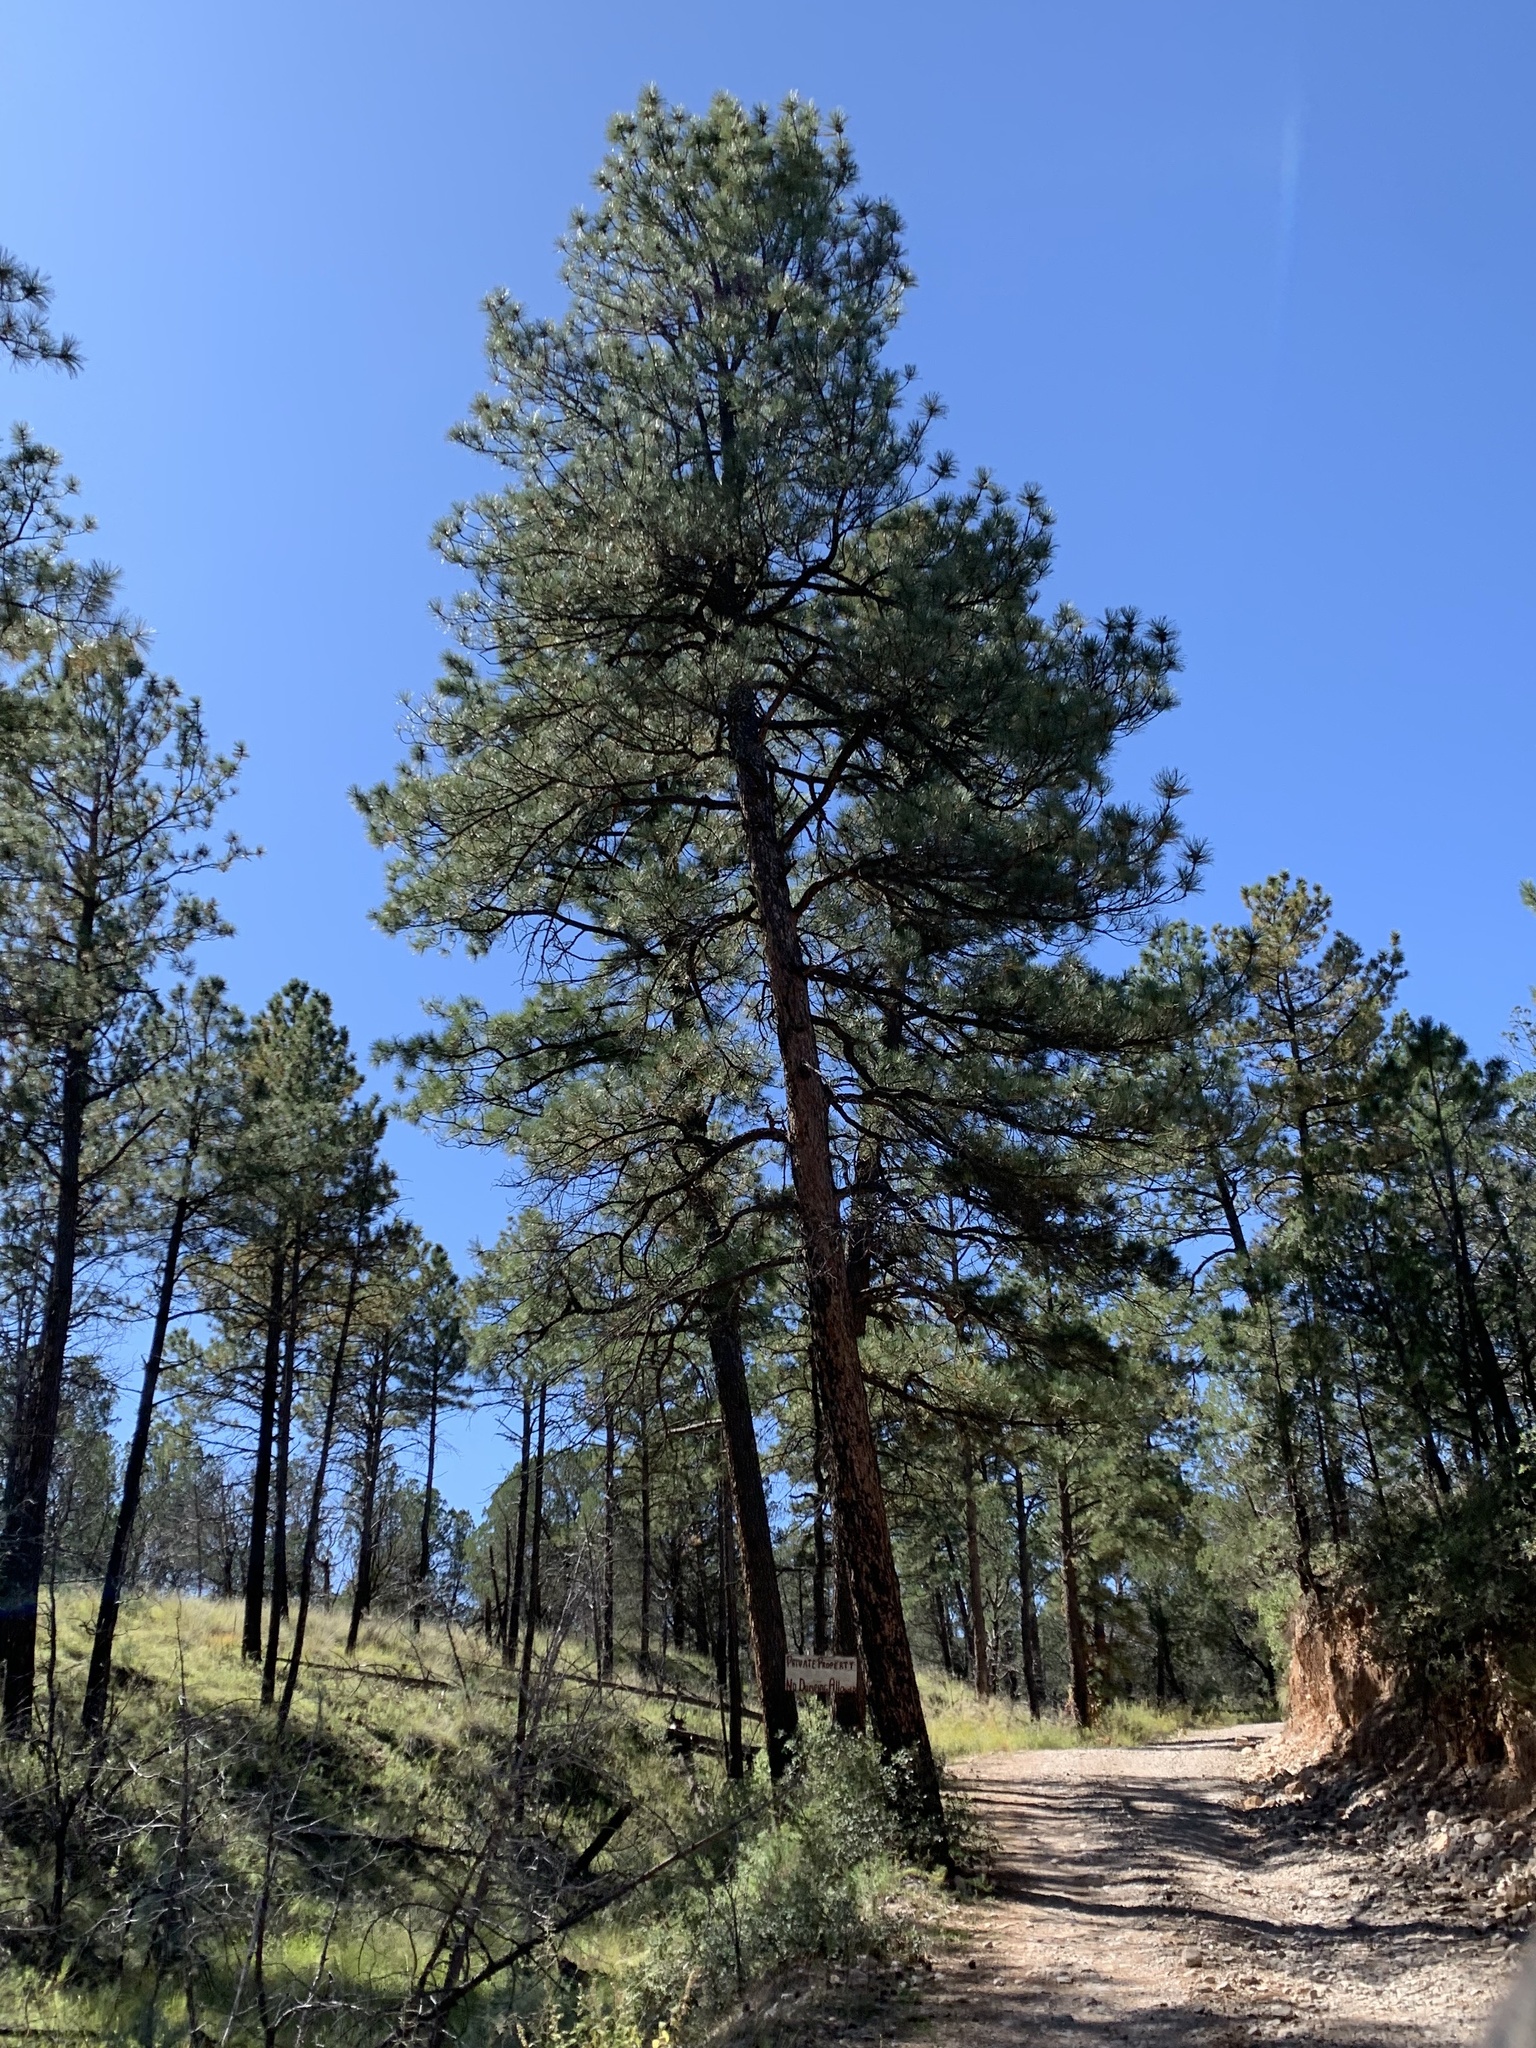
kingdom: Plantae
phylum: Tracheophyta
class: Pinopsida
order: Pinales
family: Pinaceae
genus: Pinus
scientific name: Pinus ponderosa
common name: Western yellow-pine
